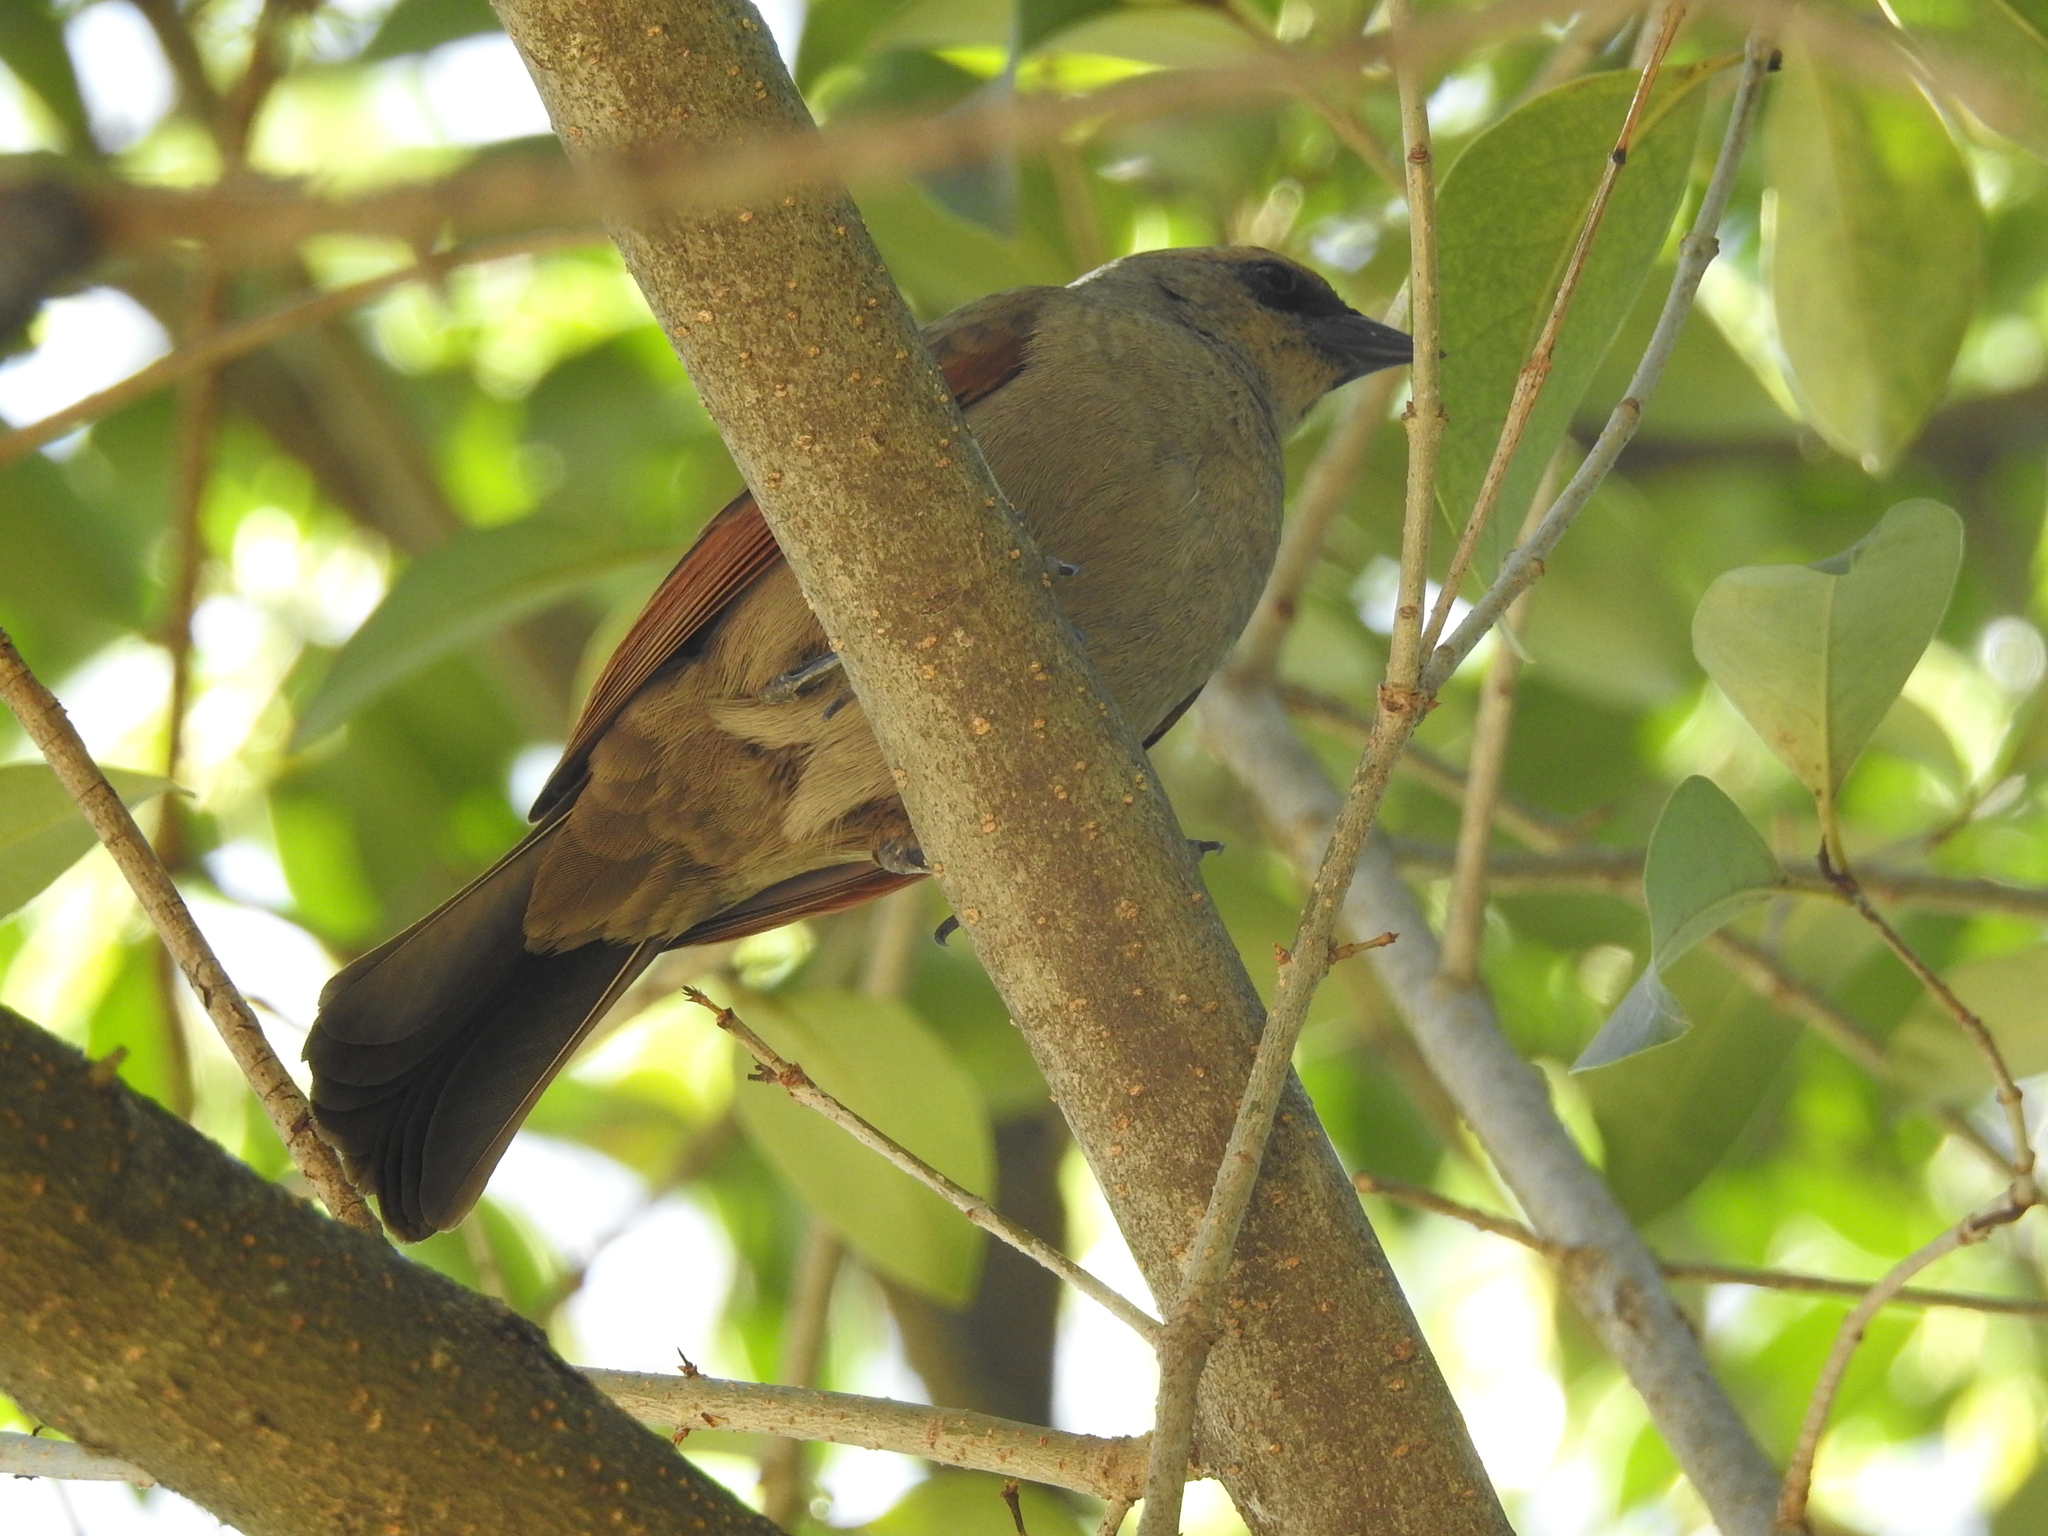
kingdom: Animalia
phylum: Chordata
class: Aves
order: Passeriformes
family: Icteridae
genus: Agelaioides
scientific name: Agelaioides badius
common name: Baywing
